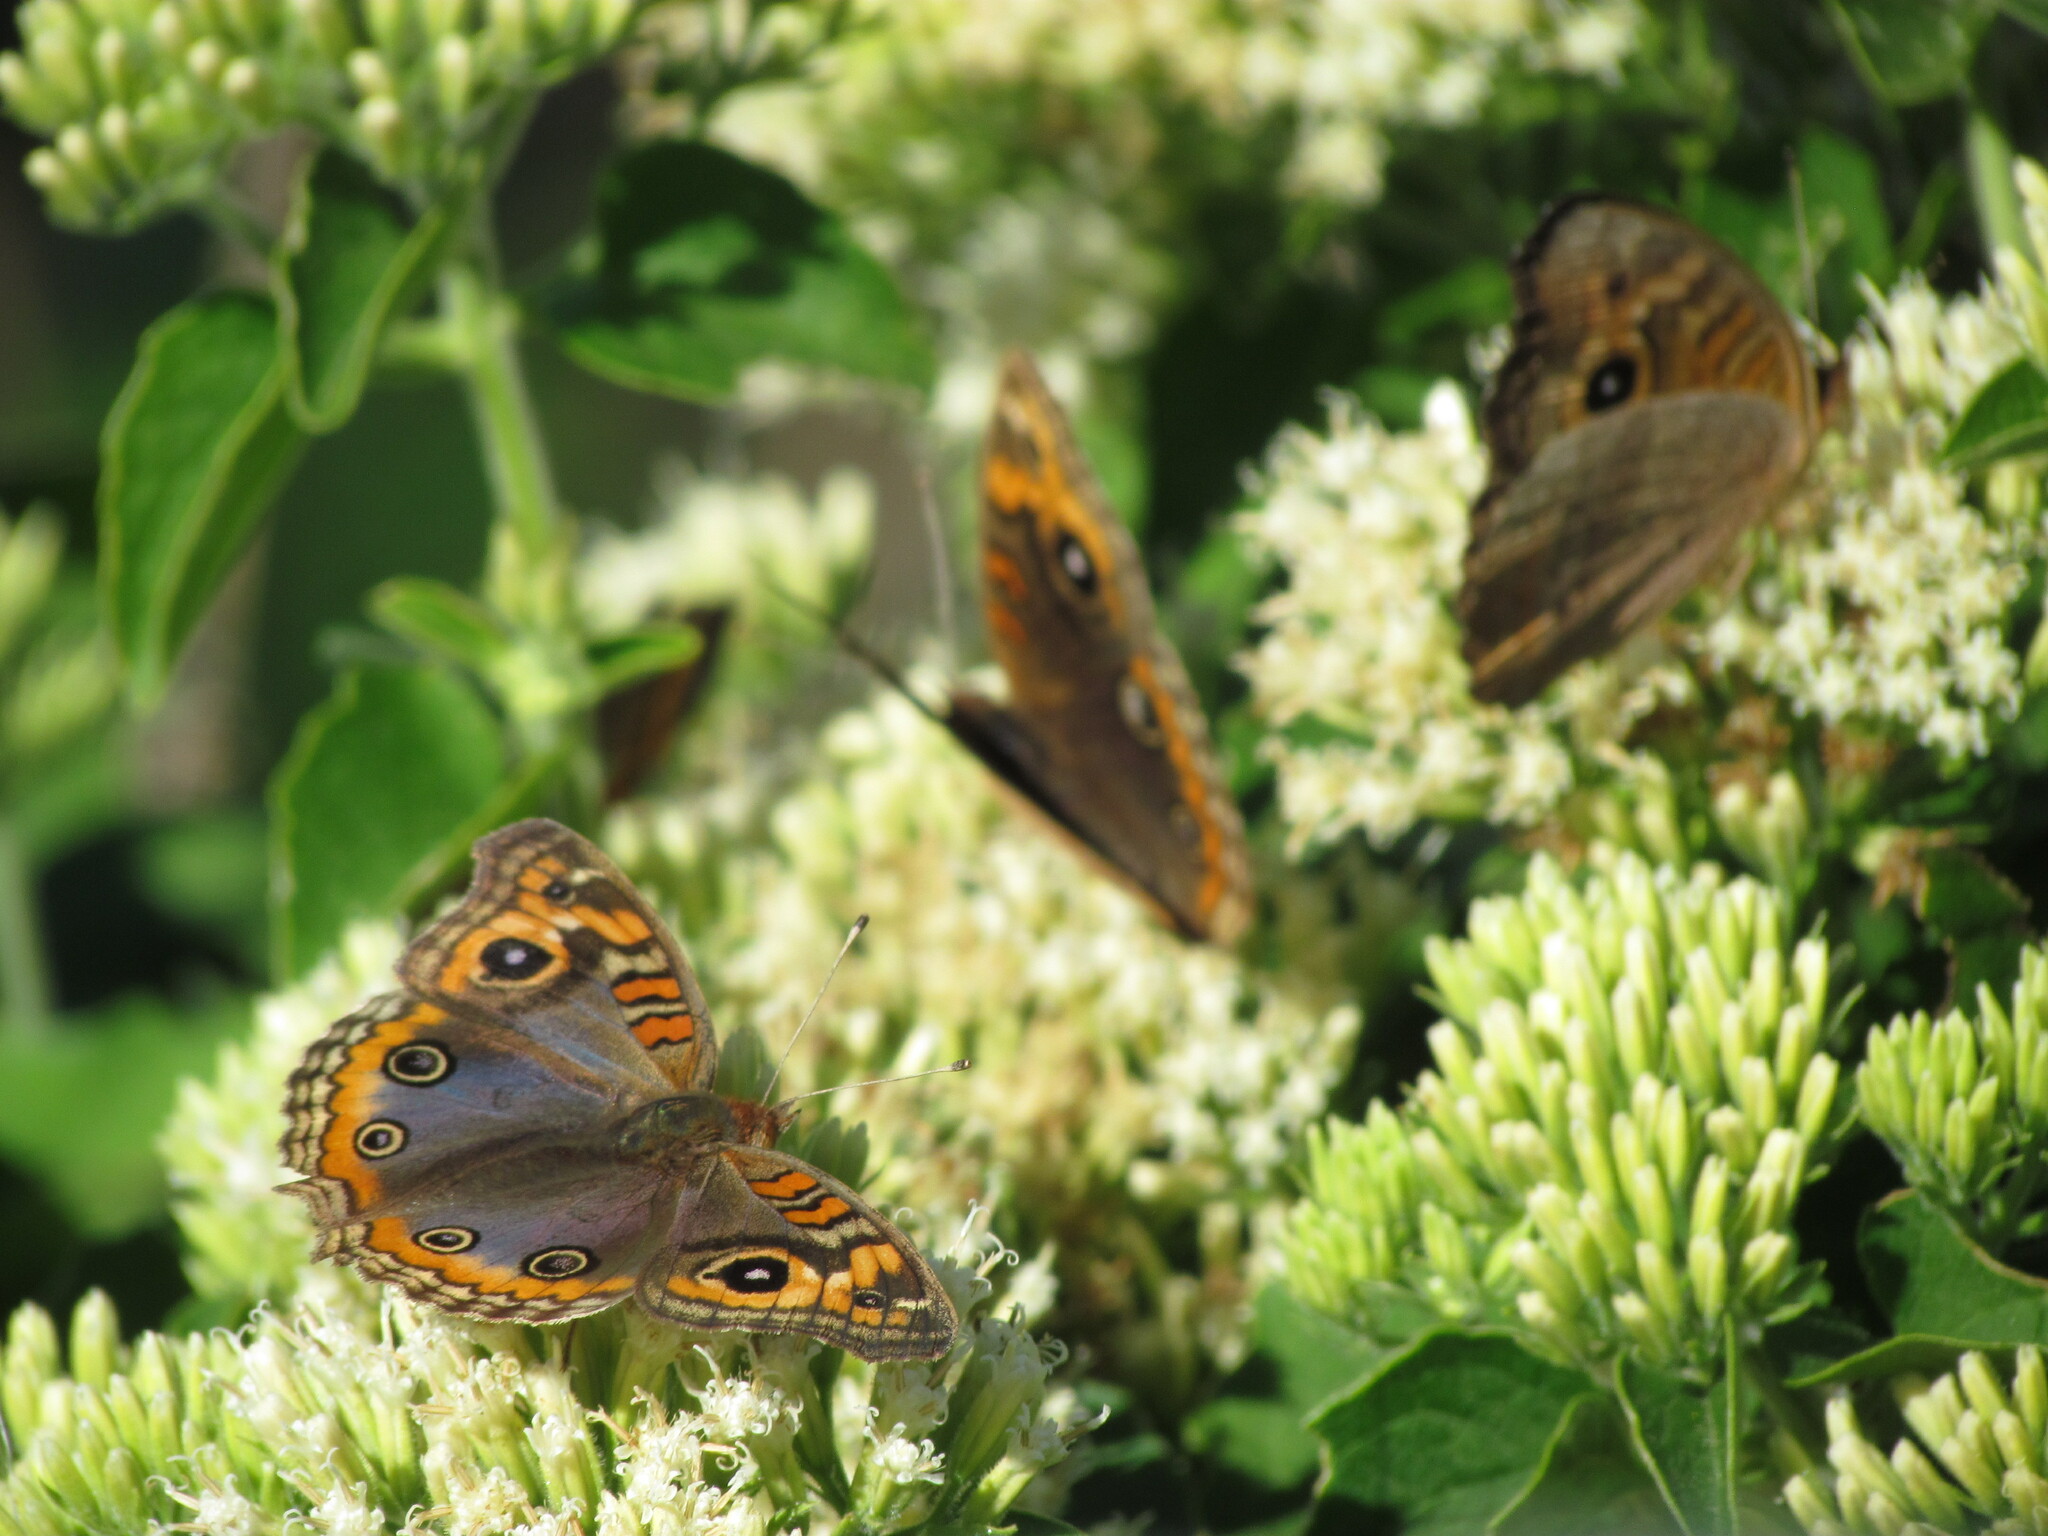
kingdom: Animalia
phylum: Arthropoda
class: Insecta
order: Lepidoptera
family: Nymphalidae
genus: Junonia
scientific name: Junonia lavinia
